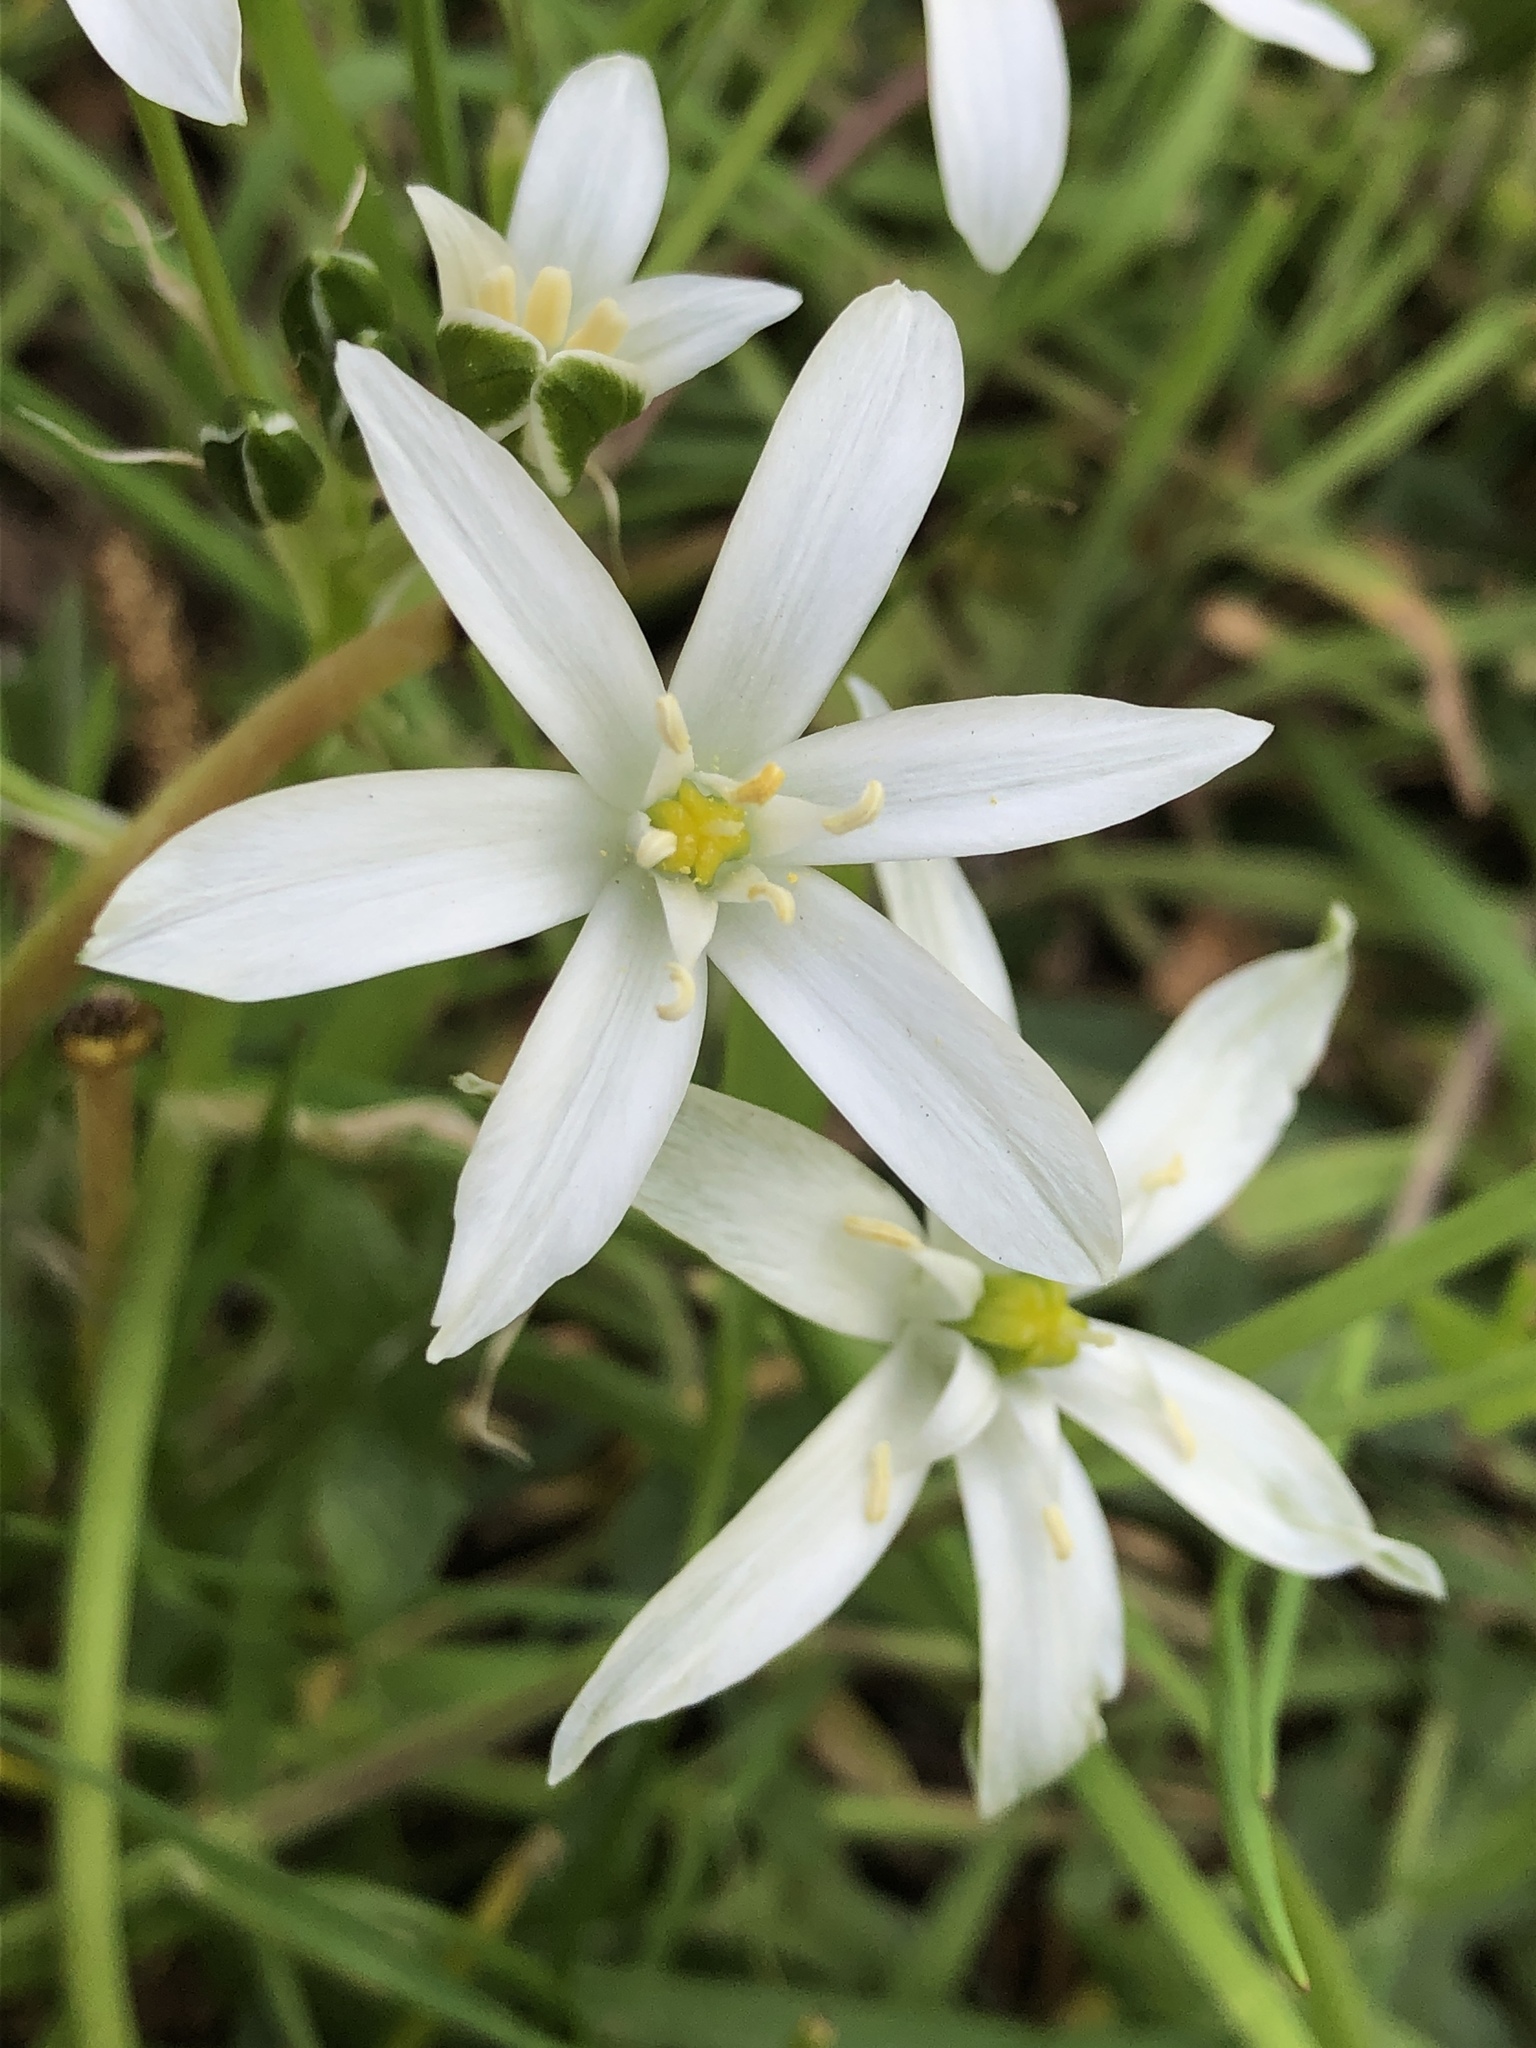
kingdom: Plantae
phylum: Tracheophyta
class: Liliopsida
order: Asparagales
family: Asparagaceae
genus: Ornithogalum
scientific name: Ornithogalum umbellatum
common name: Garden star-of-bethlehem
